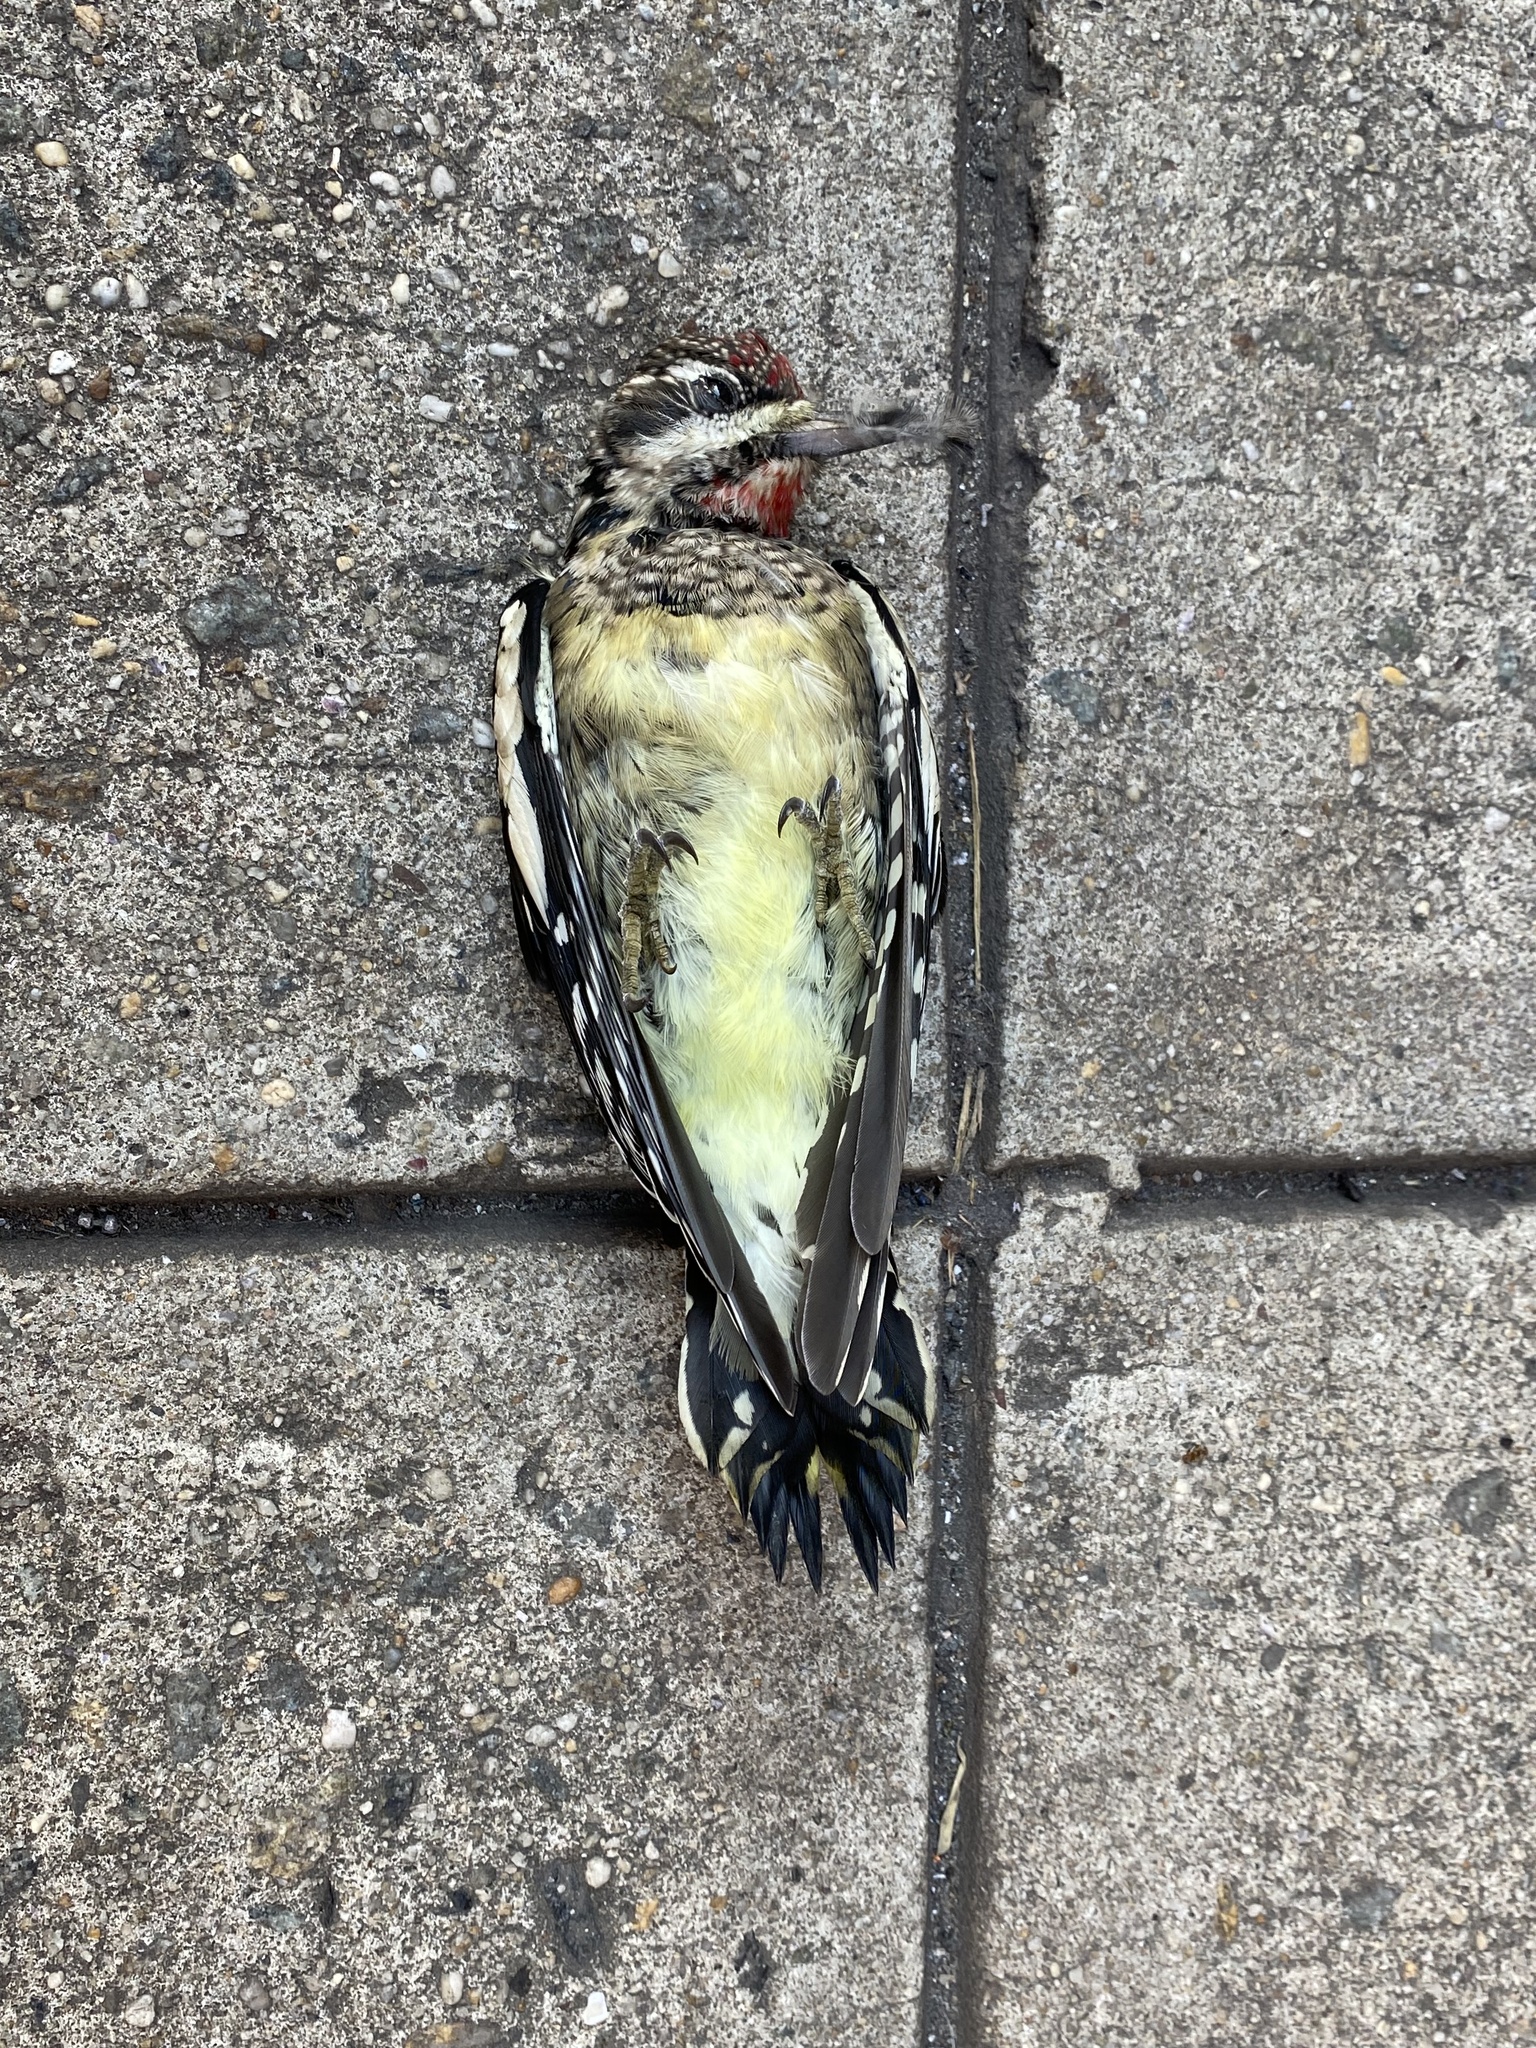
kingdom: Animalia
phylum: Chordata
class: Aves
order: Piciformes
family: Picidae
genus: Sphyrapicus
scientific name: Sphyrapicus varius
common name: Yellow-bellied sapsucker
